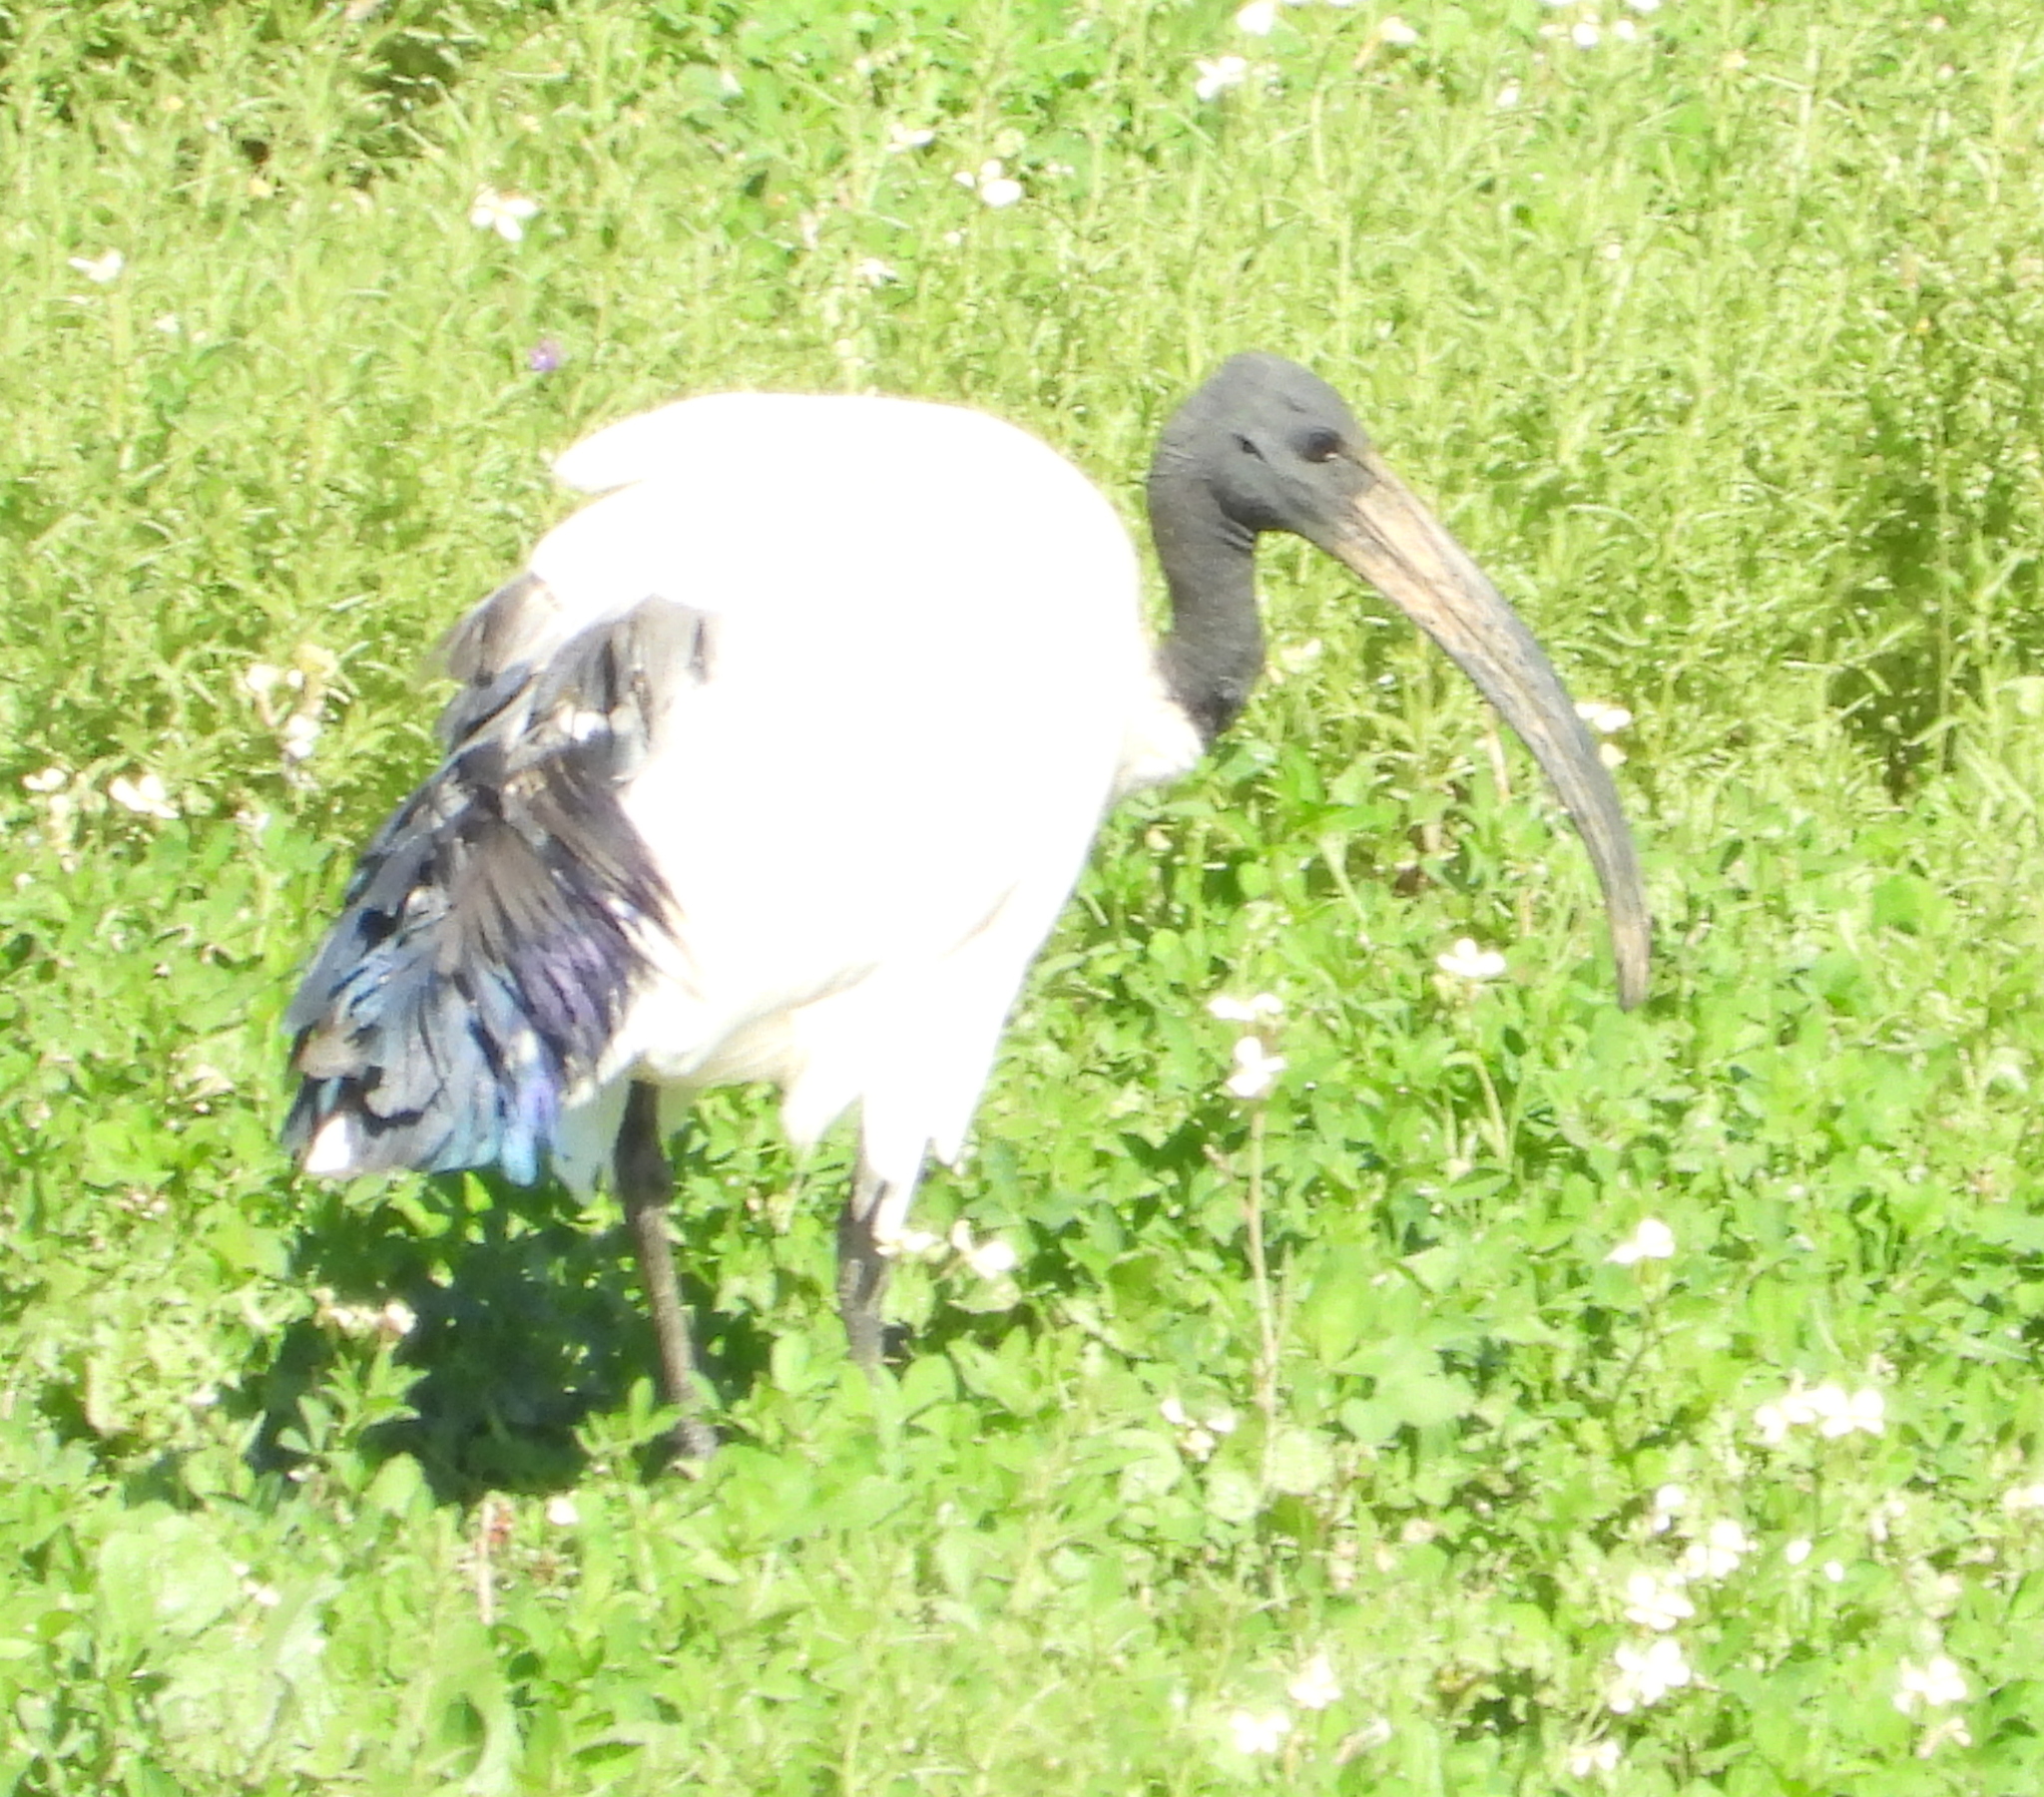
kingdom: Animalia
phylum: Chordata
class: Aves
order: Pelecaniformes
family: Threskiornithidae
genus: Threskiornis
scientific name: Threskiornis aethiopicus
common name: Sacred ibis
